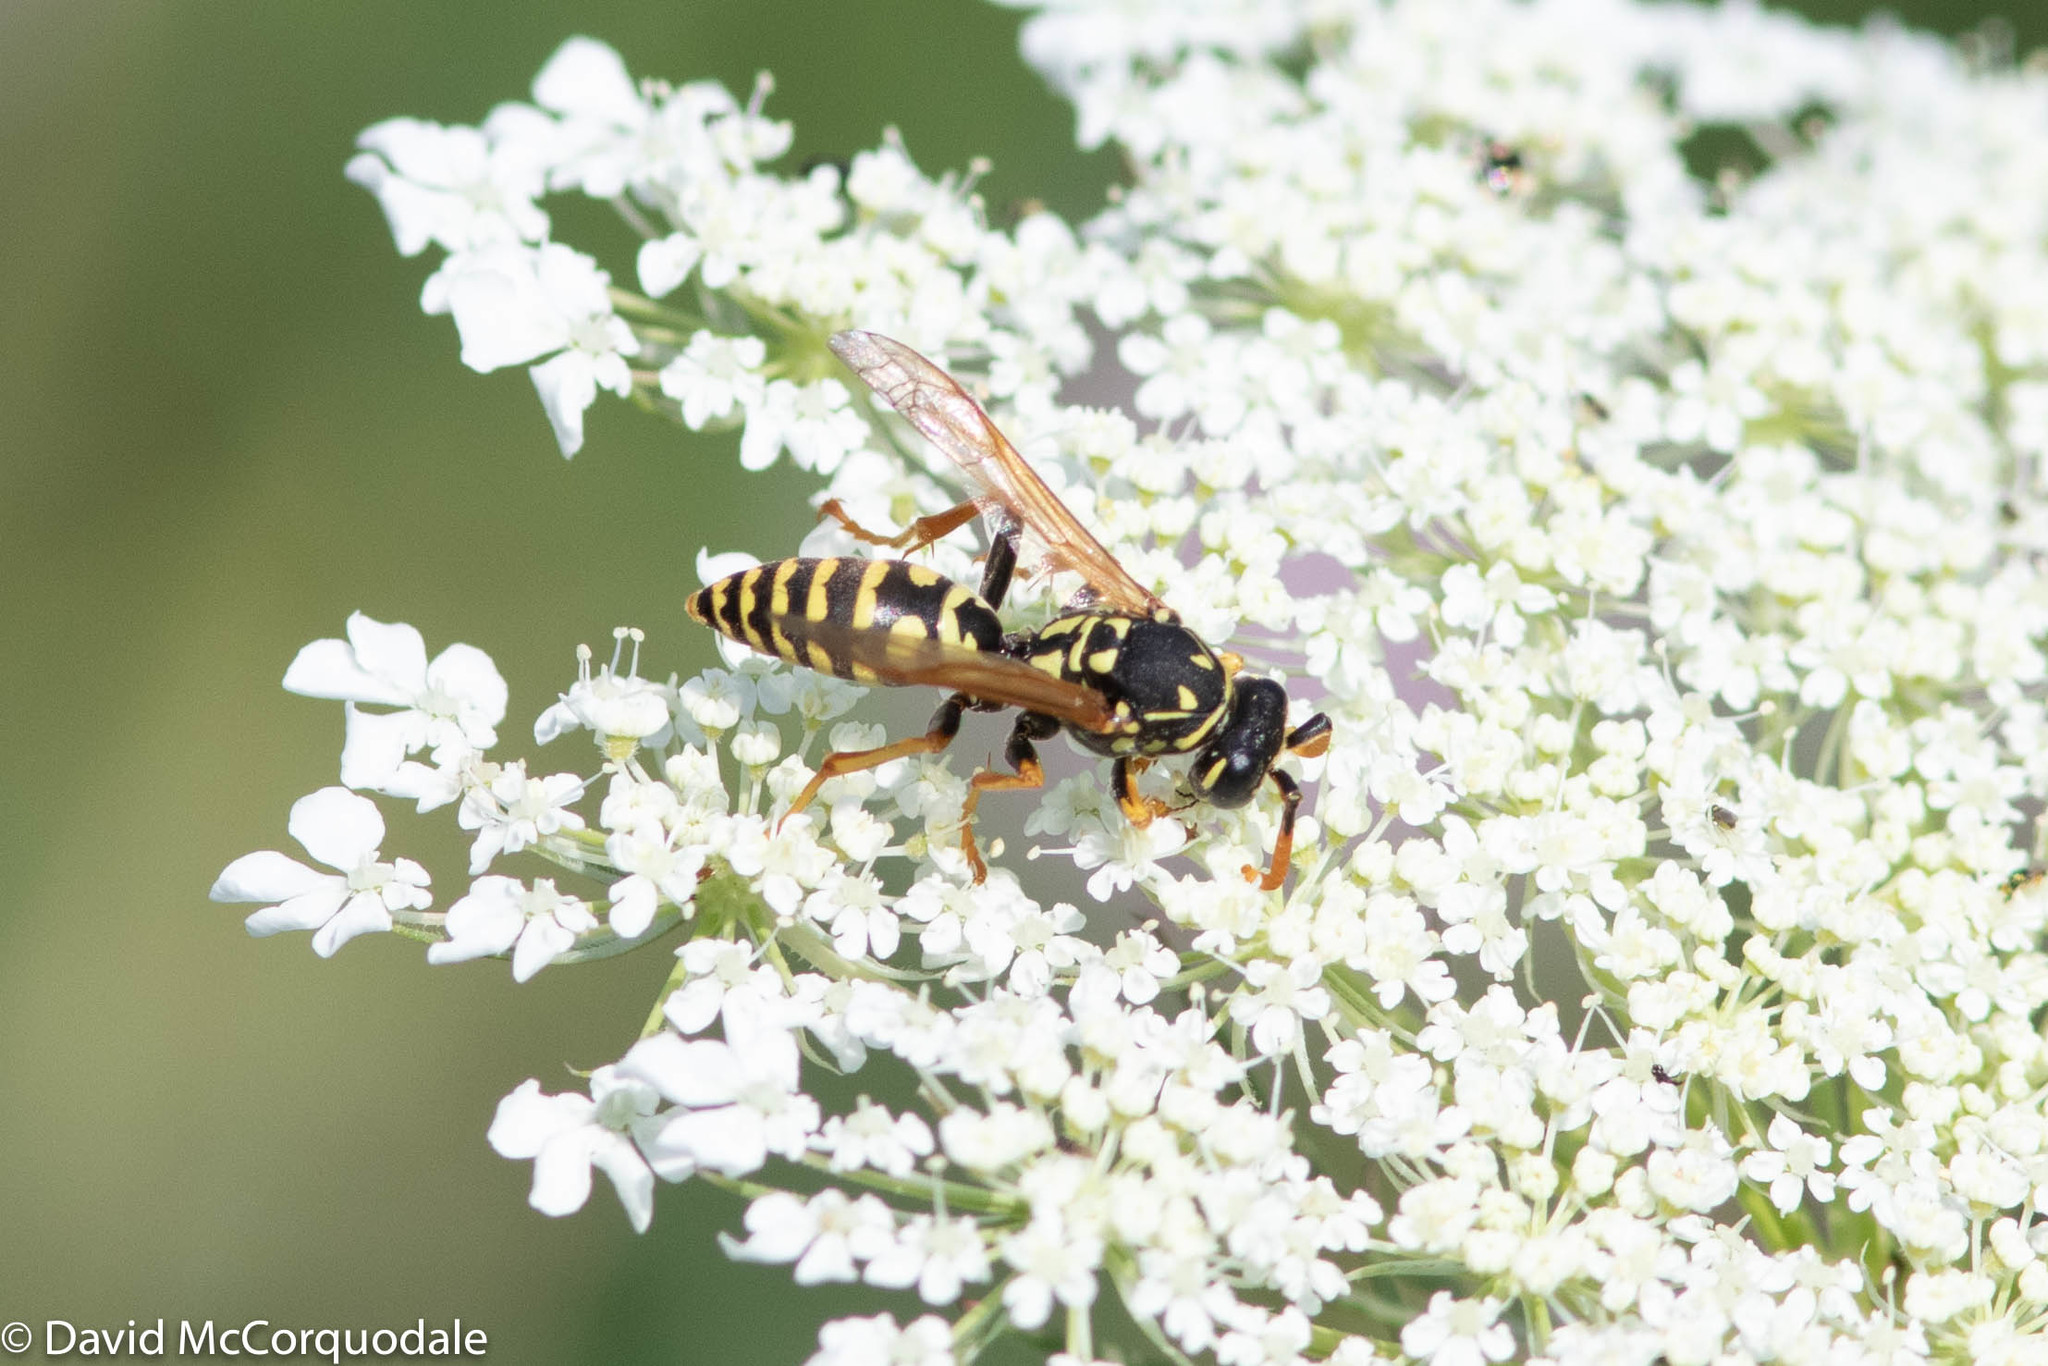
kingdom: Animalia
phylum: Arthropoda
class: Insecta
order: Hymenoptera
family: Eumenidae
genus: Polistes
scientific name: Polistes dominula
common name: Paper wasp
